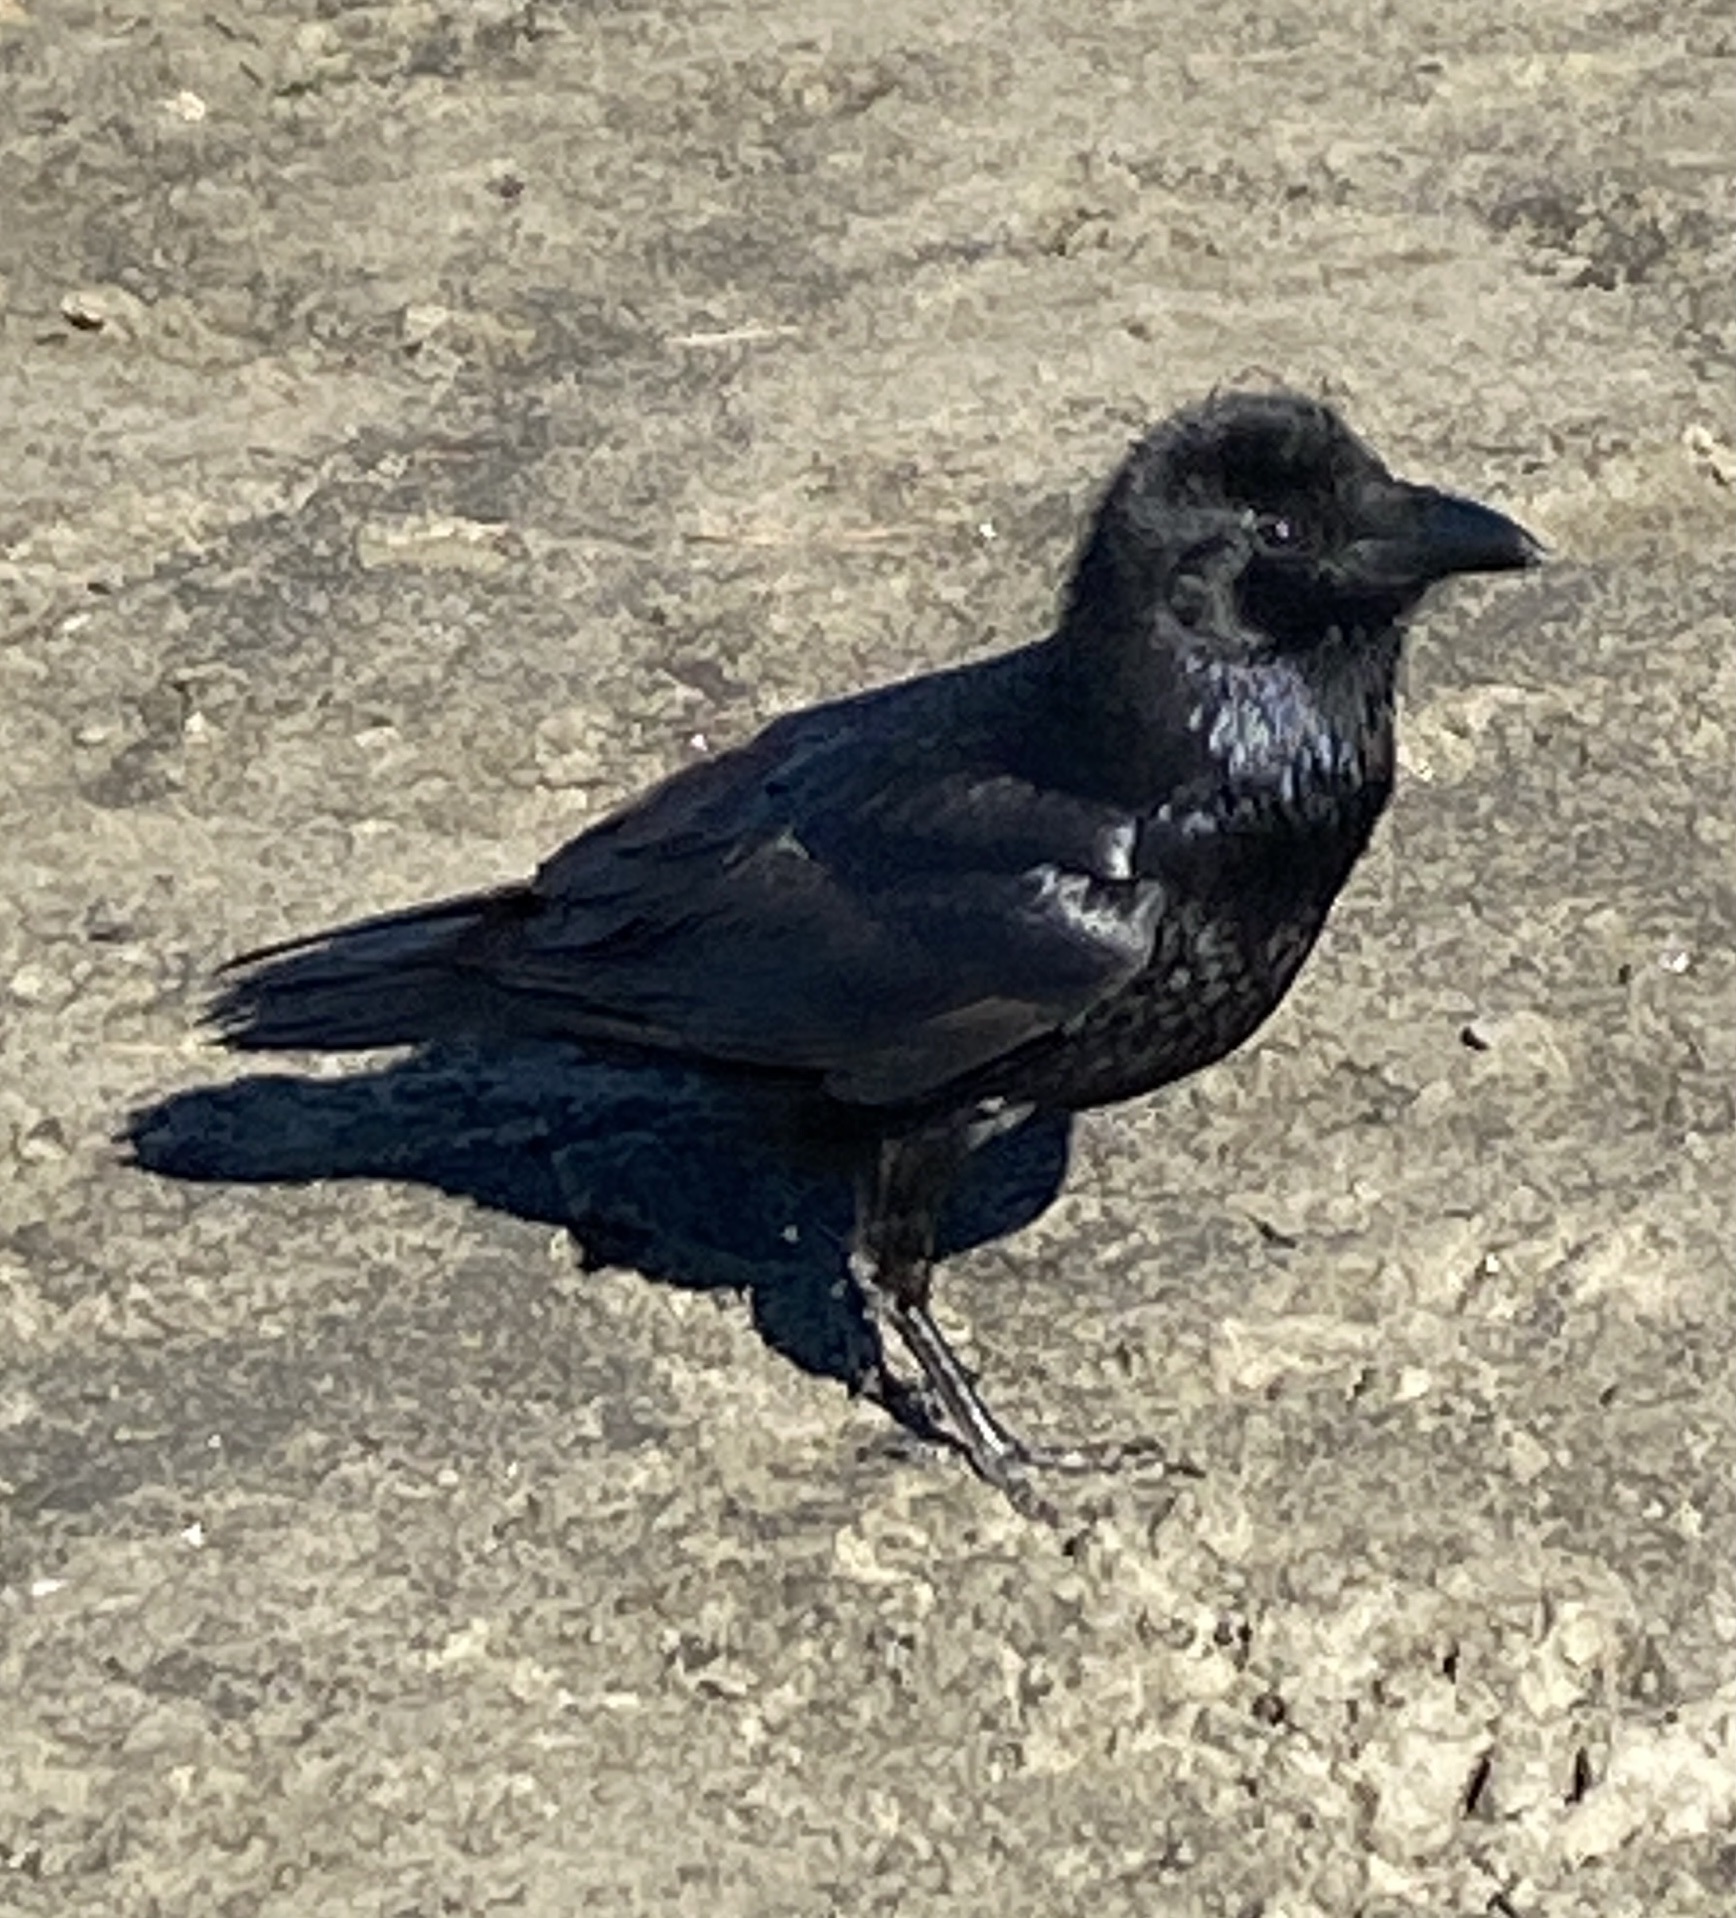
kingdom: Animalia
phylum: Chordata
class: Aves
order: Passeriformes
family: Corvidae
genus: Corvus
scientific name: Corvus corax
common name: Common raven
